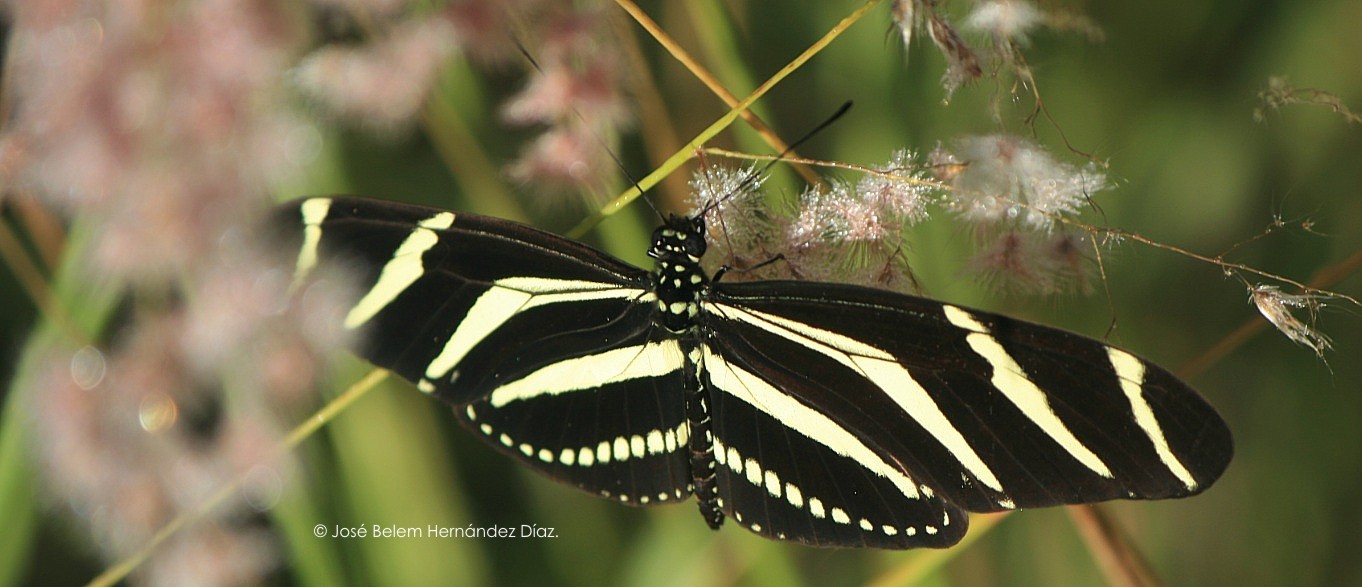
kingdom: Animalia
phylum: Arthropoda
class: Insecta
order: Lepidoptera
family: Nymphalidae
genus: Heliconius
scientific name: Heliconius charithonia
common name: Zebra long wing
